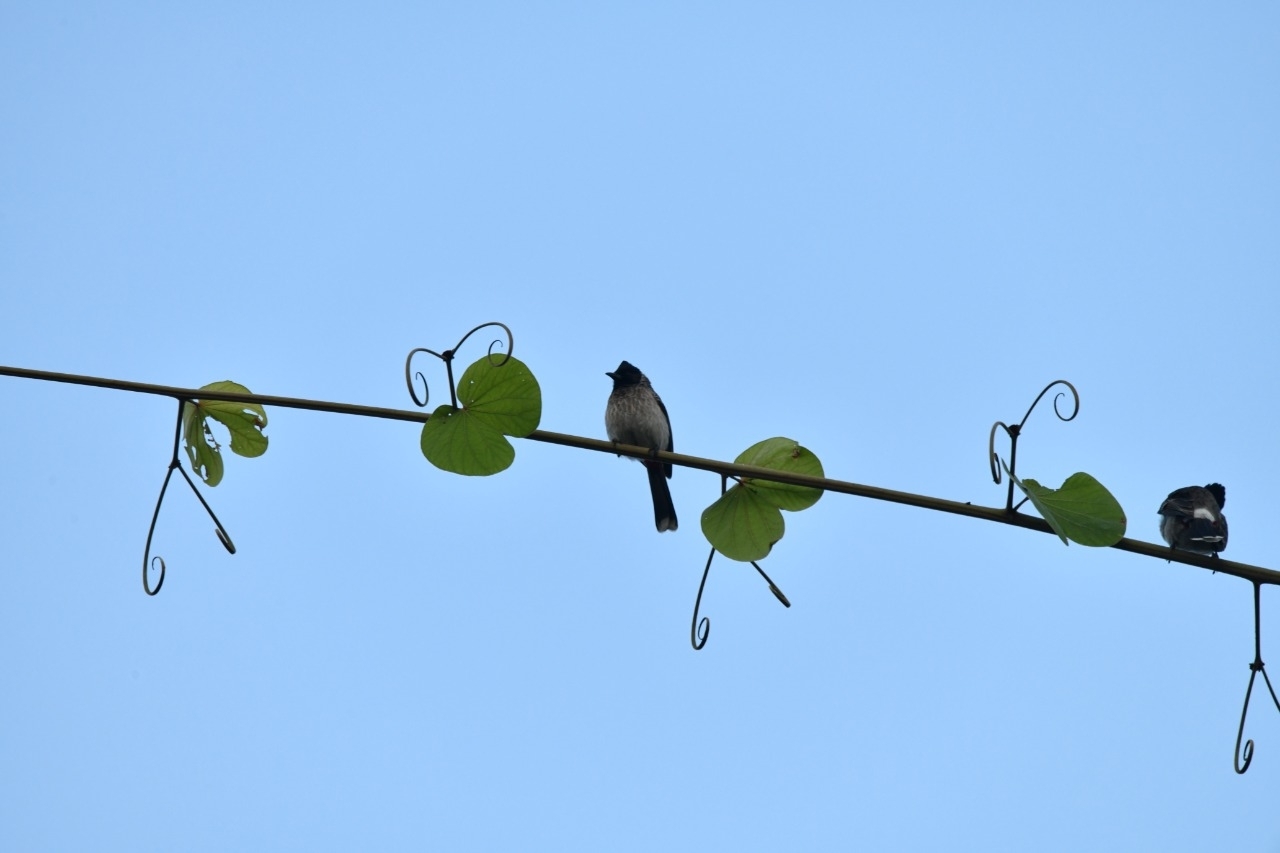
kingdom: Animalia
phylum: Chordata
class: Aves
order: Passeriformes
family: Pycnonotidae
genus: Pycnonotus
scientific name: Pycnonotus cafer
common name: Red-vented bulbul
